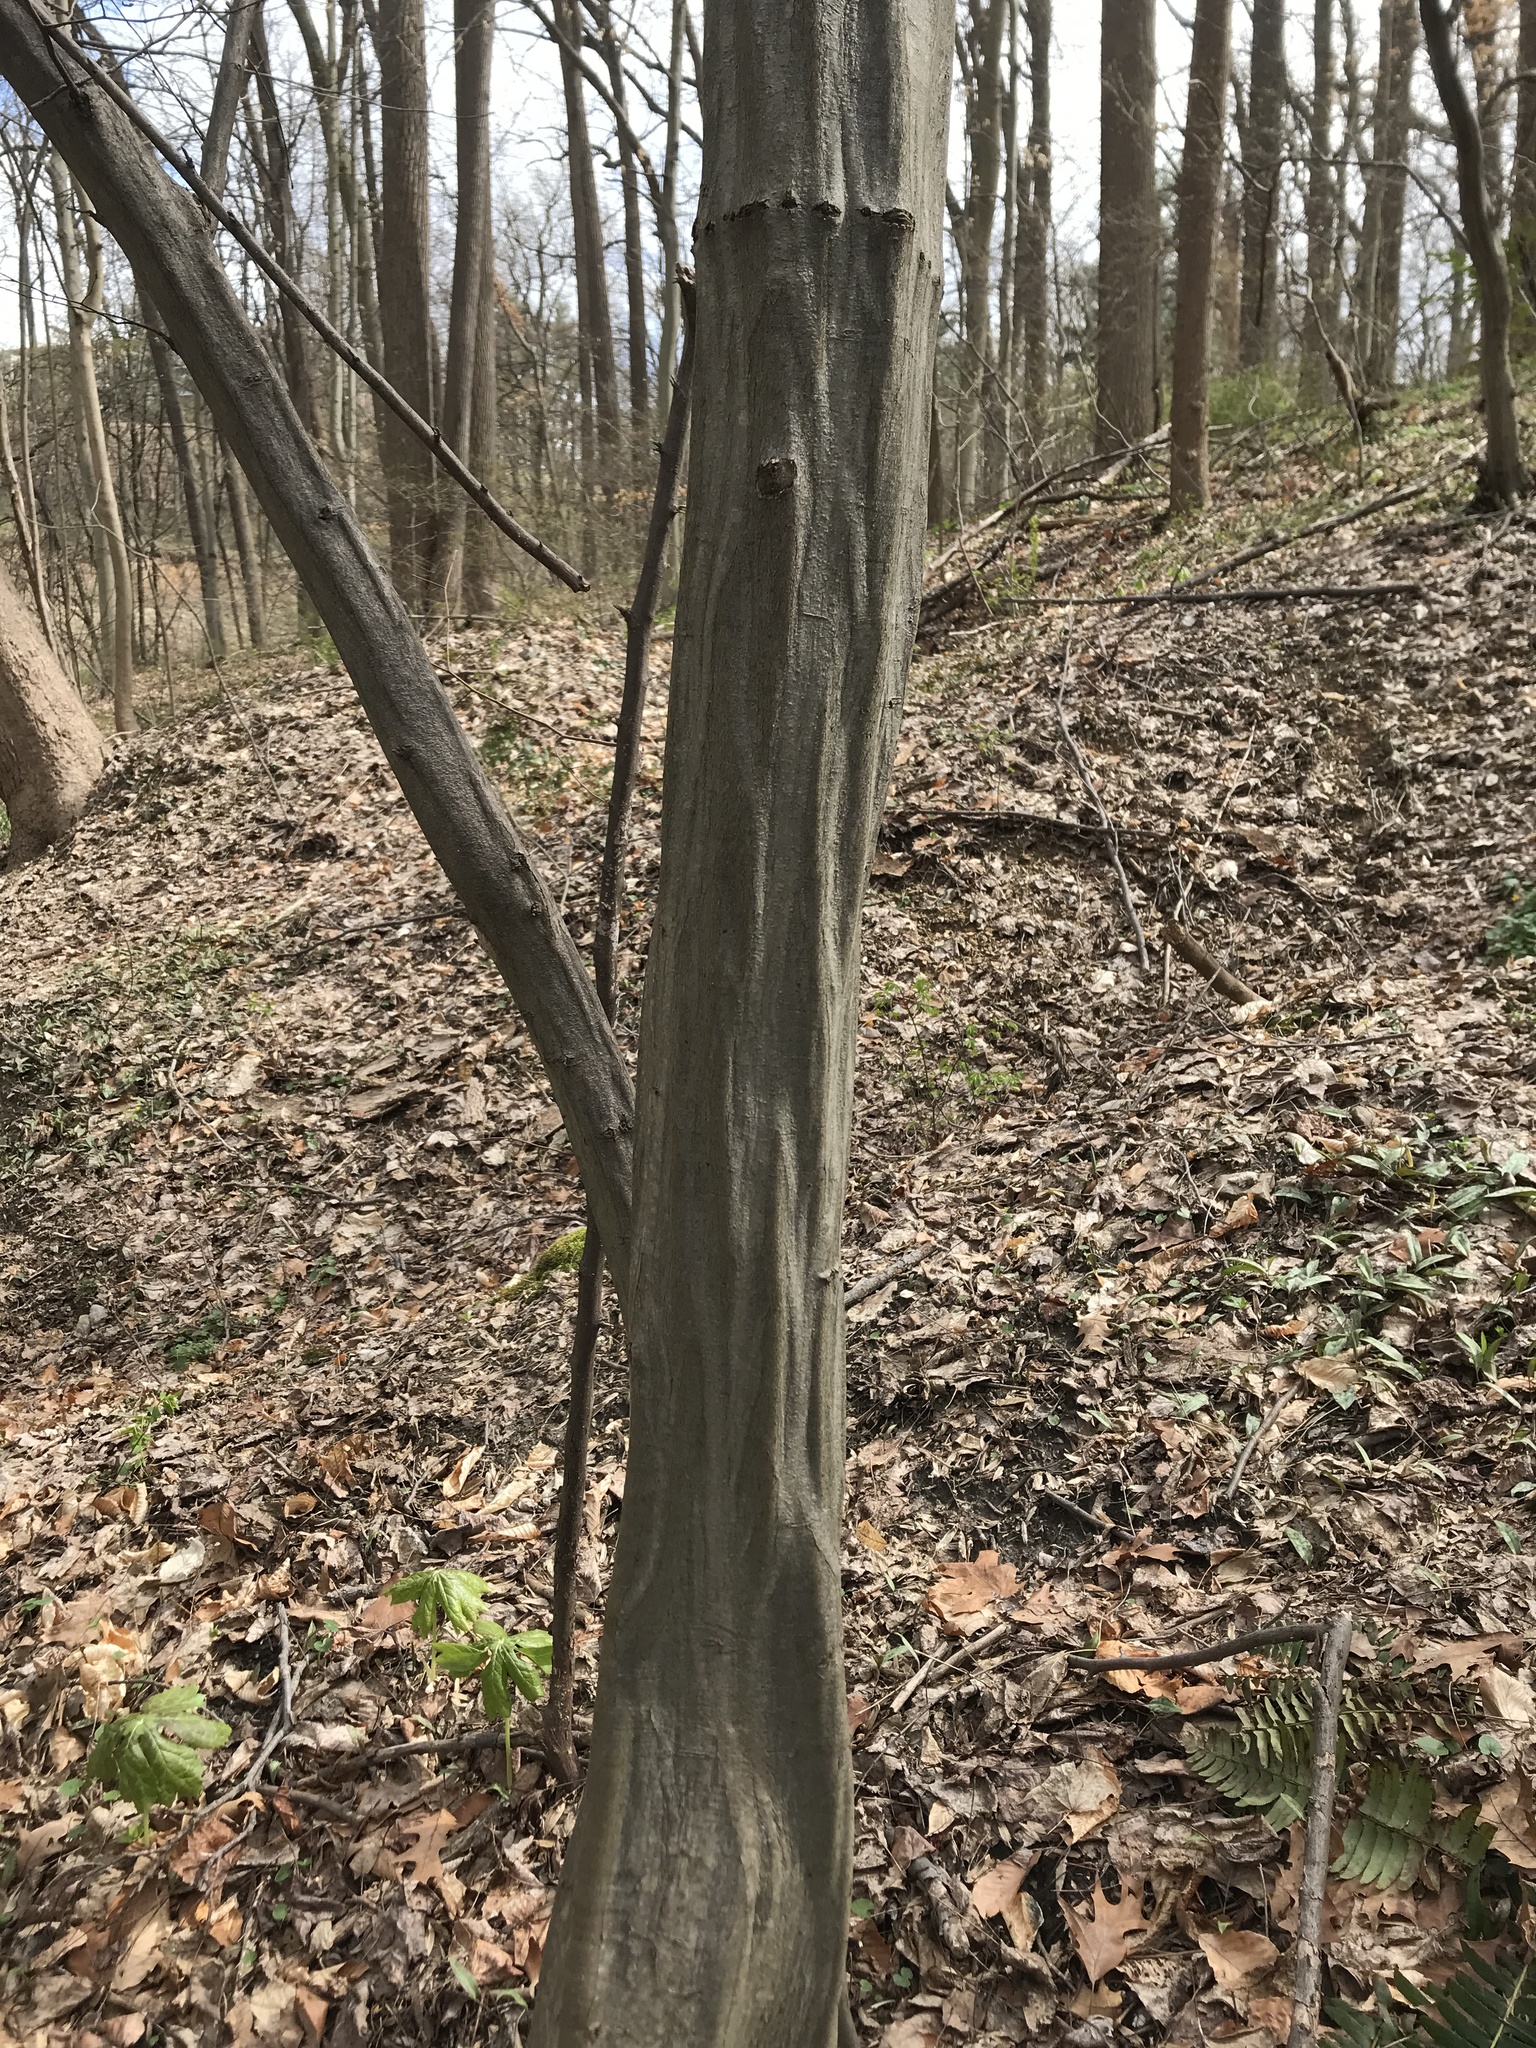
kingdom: Plantae
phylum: Tracheophyta
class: Magnoliopsida
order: Fagales
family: Betulaceae
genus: Carpinus
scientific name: Carpinus caroliniana
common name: American hornbeam
